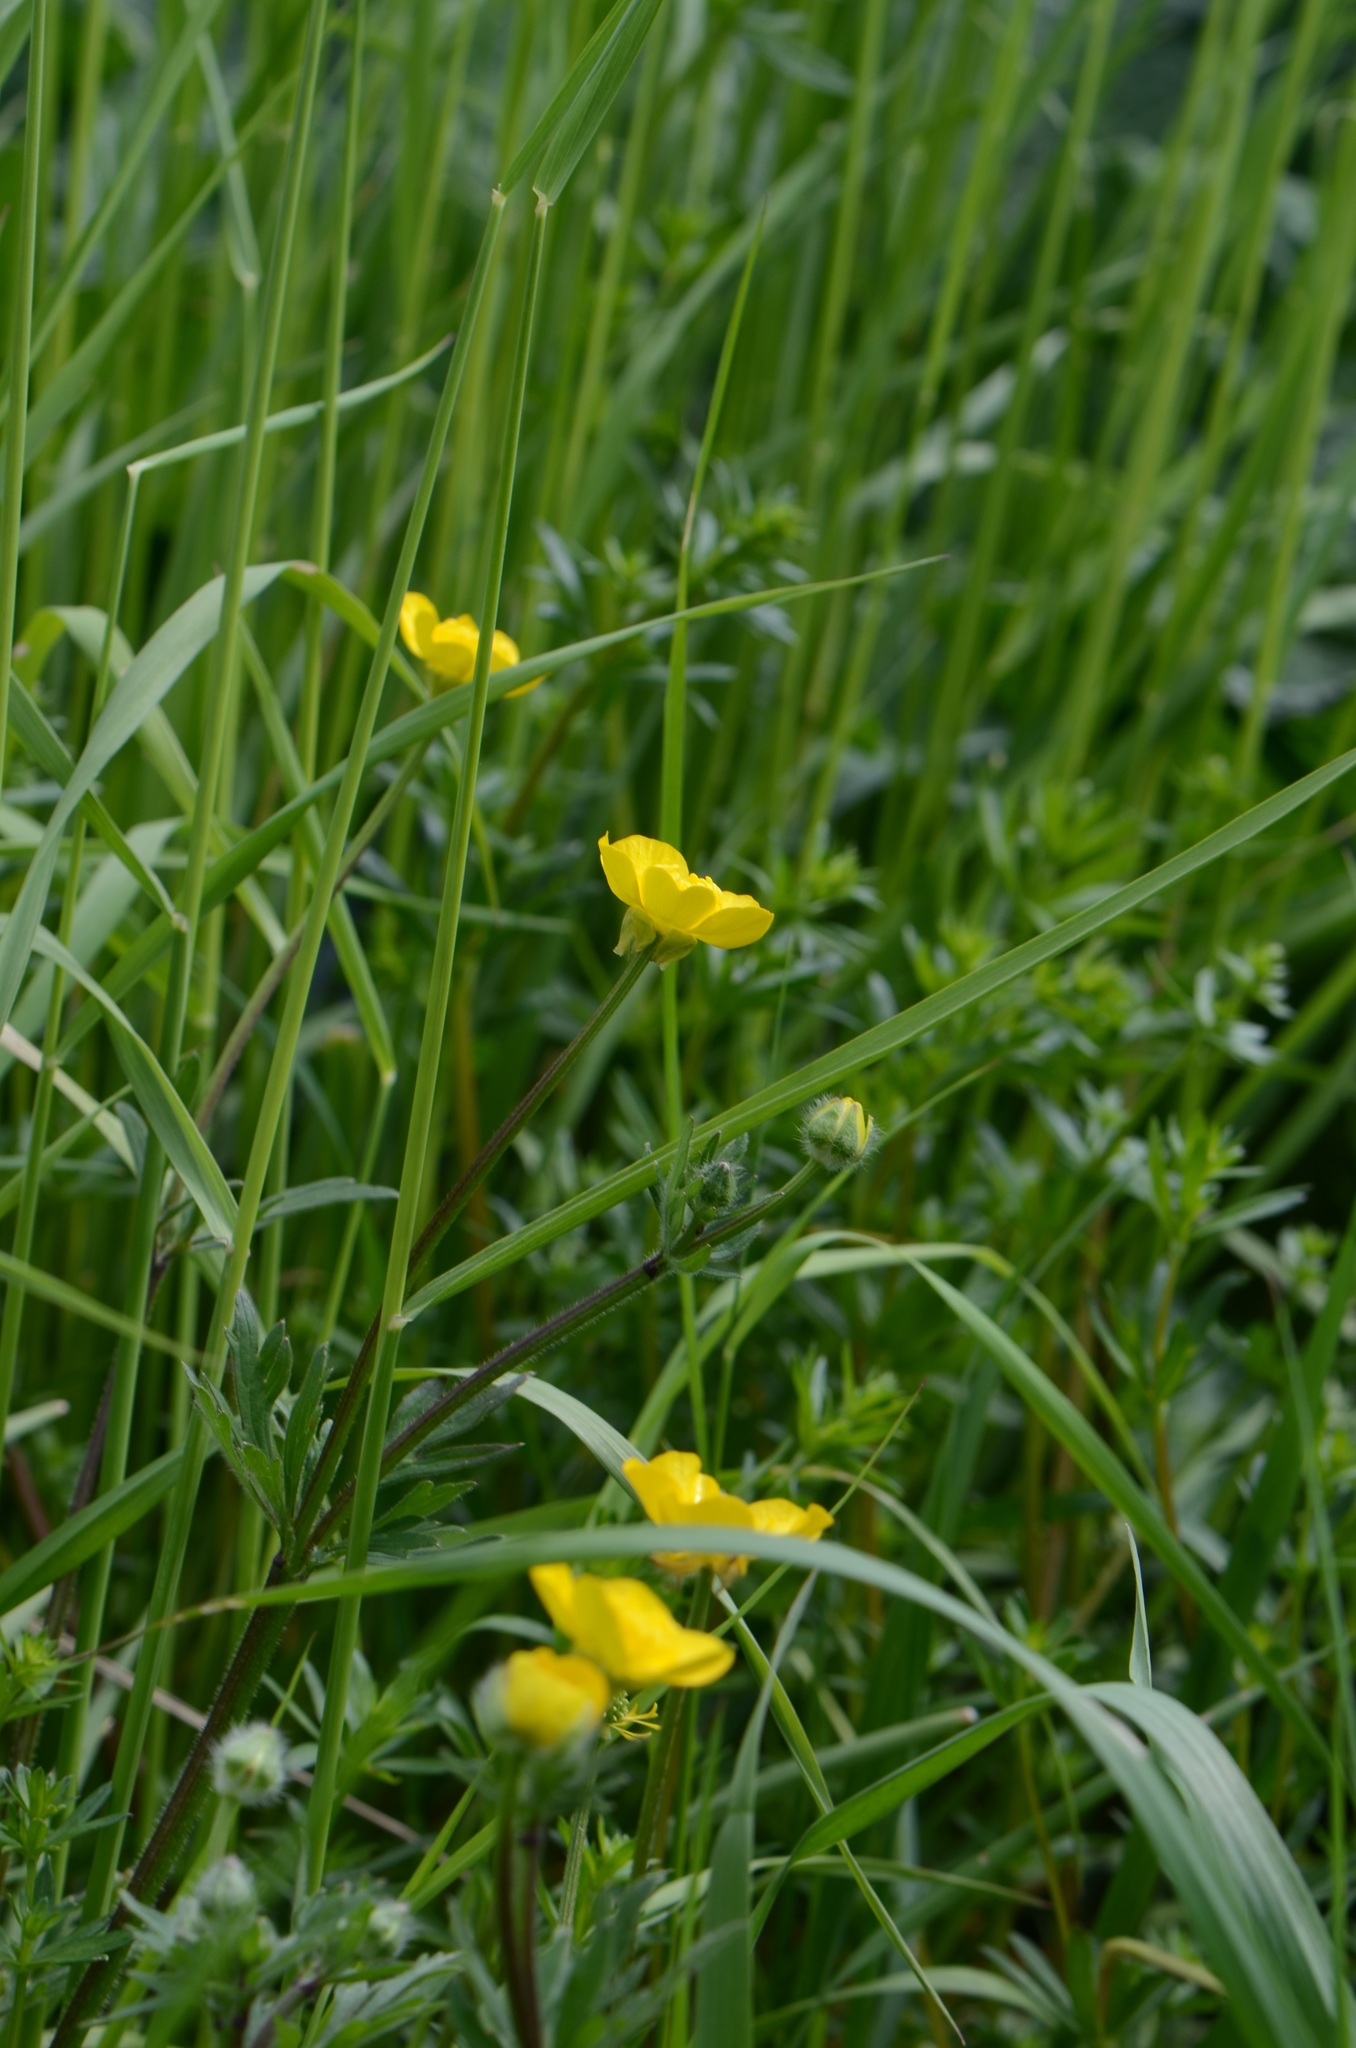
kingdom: Plantae
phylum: Tracheophyta
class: Magnoliopsida
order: Ranunculales
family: Ranunculaceae
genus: Ranunculus
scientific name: Ranunculus bulbosus
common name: Bulbous buttercup
